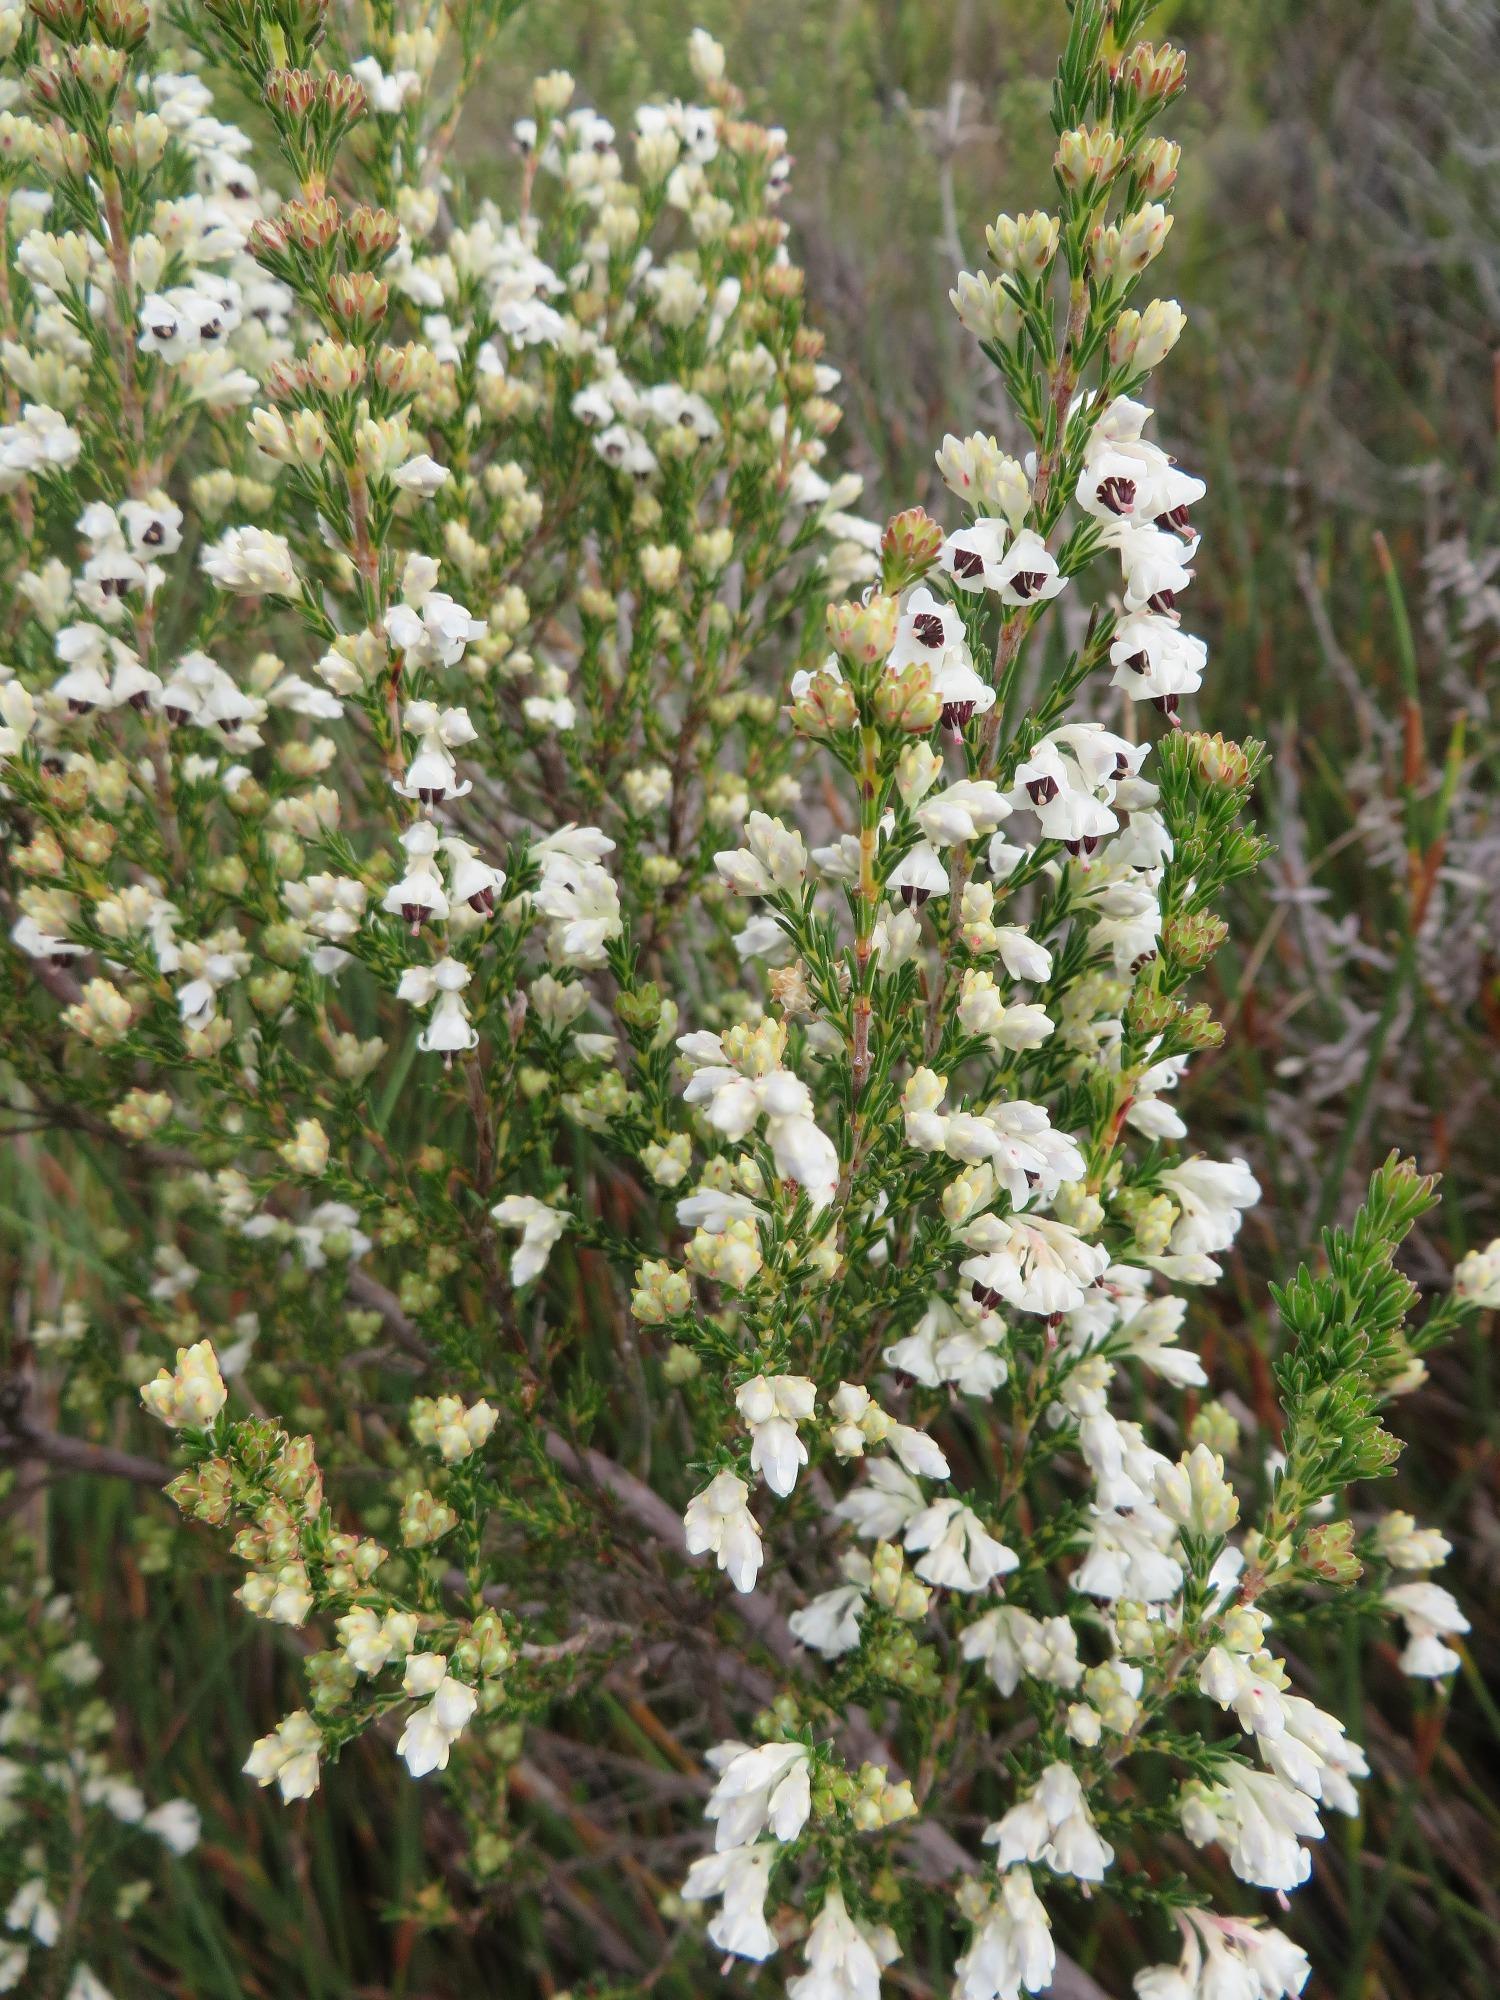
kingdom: Plantae
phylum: Tracheophyta
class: Magnoliopsida
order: Ericales
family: Ericaceae
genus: Erica
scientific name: Erica calycina
